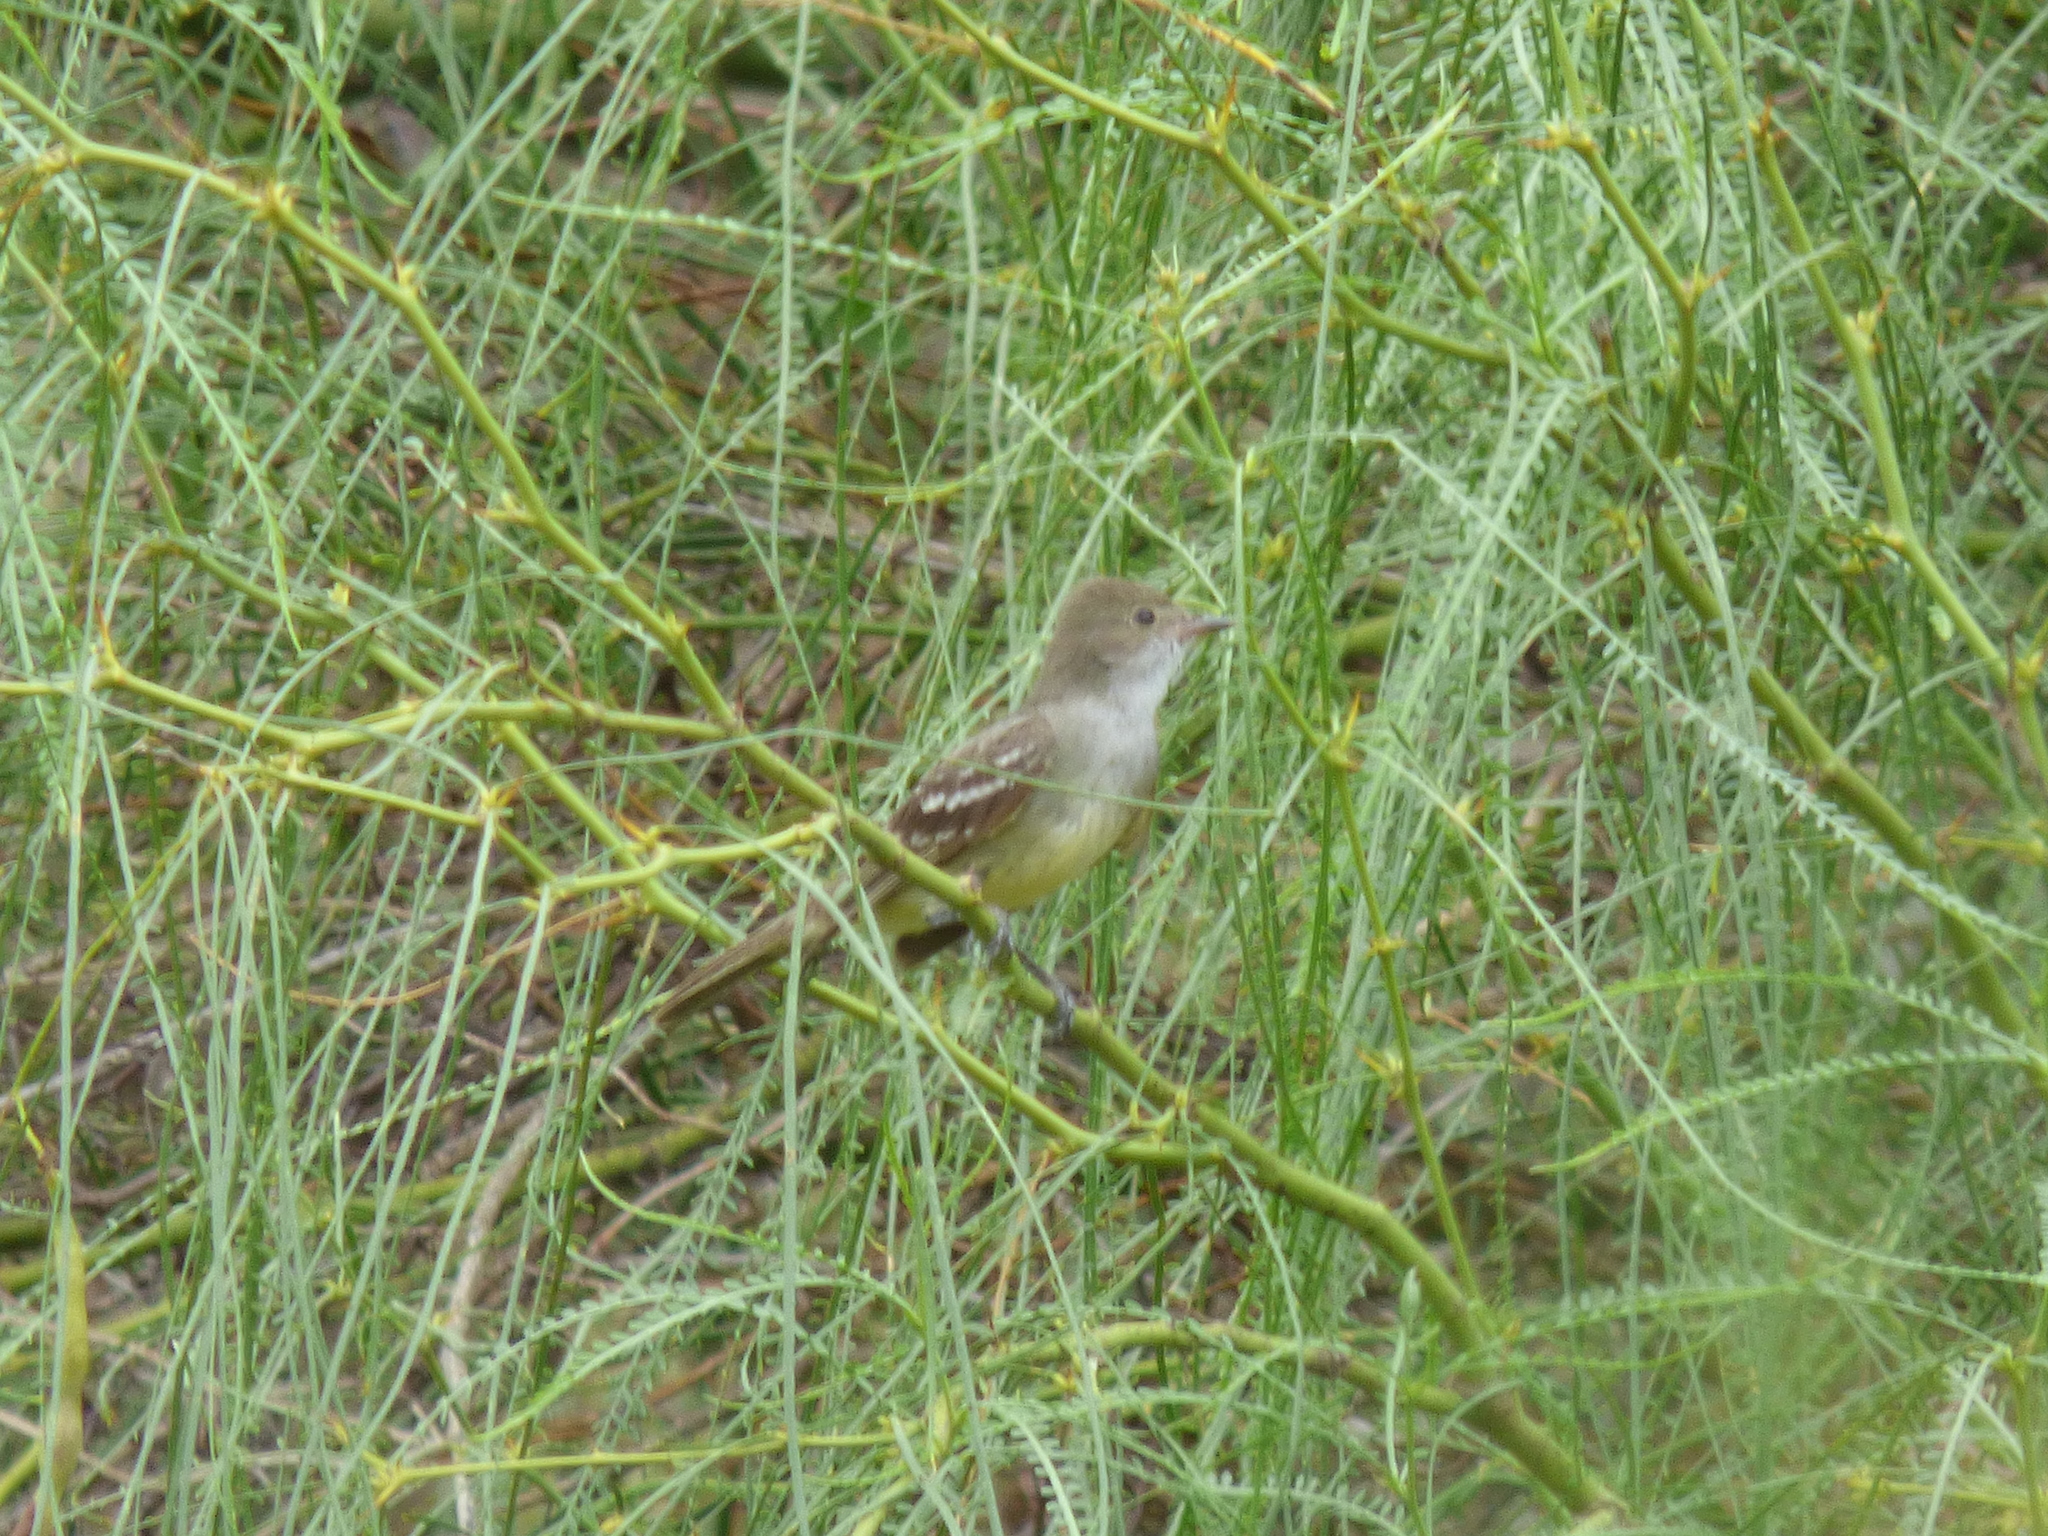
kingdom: Animalia
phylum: Chordata
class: Aves
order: Passeriformes
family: Tyrannidae
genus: Elaenia
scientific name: Elaenia spectabilis
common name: Large elaenia
